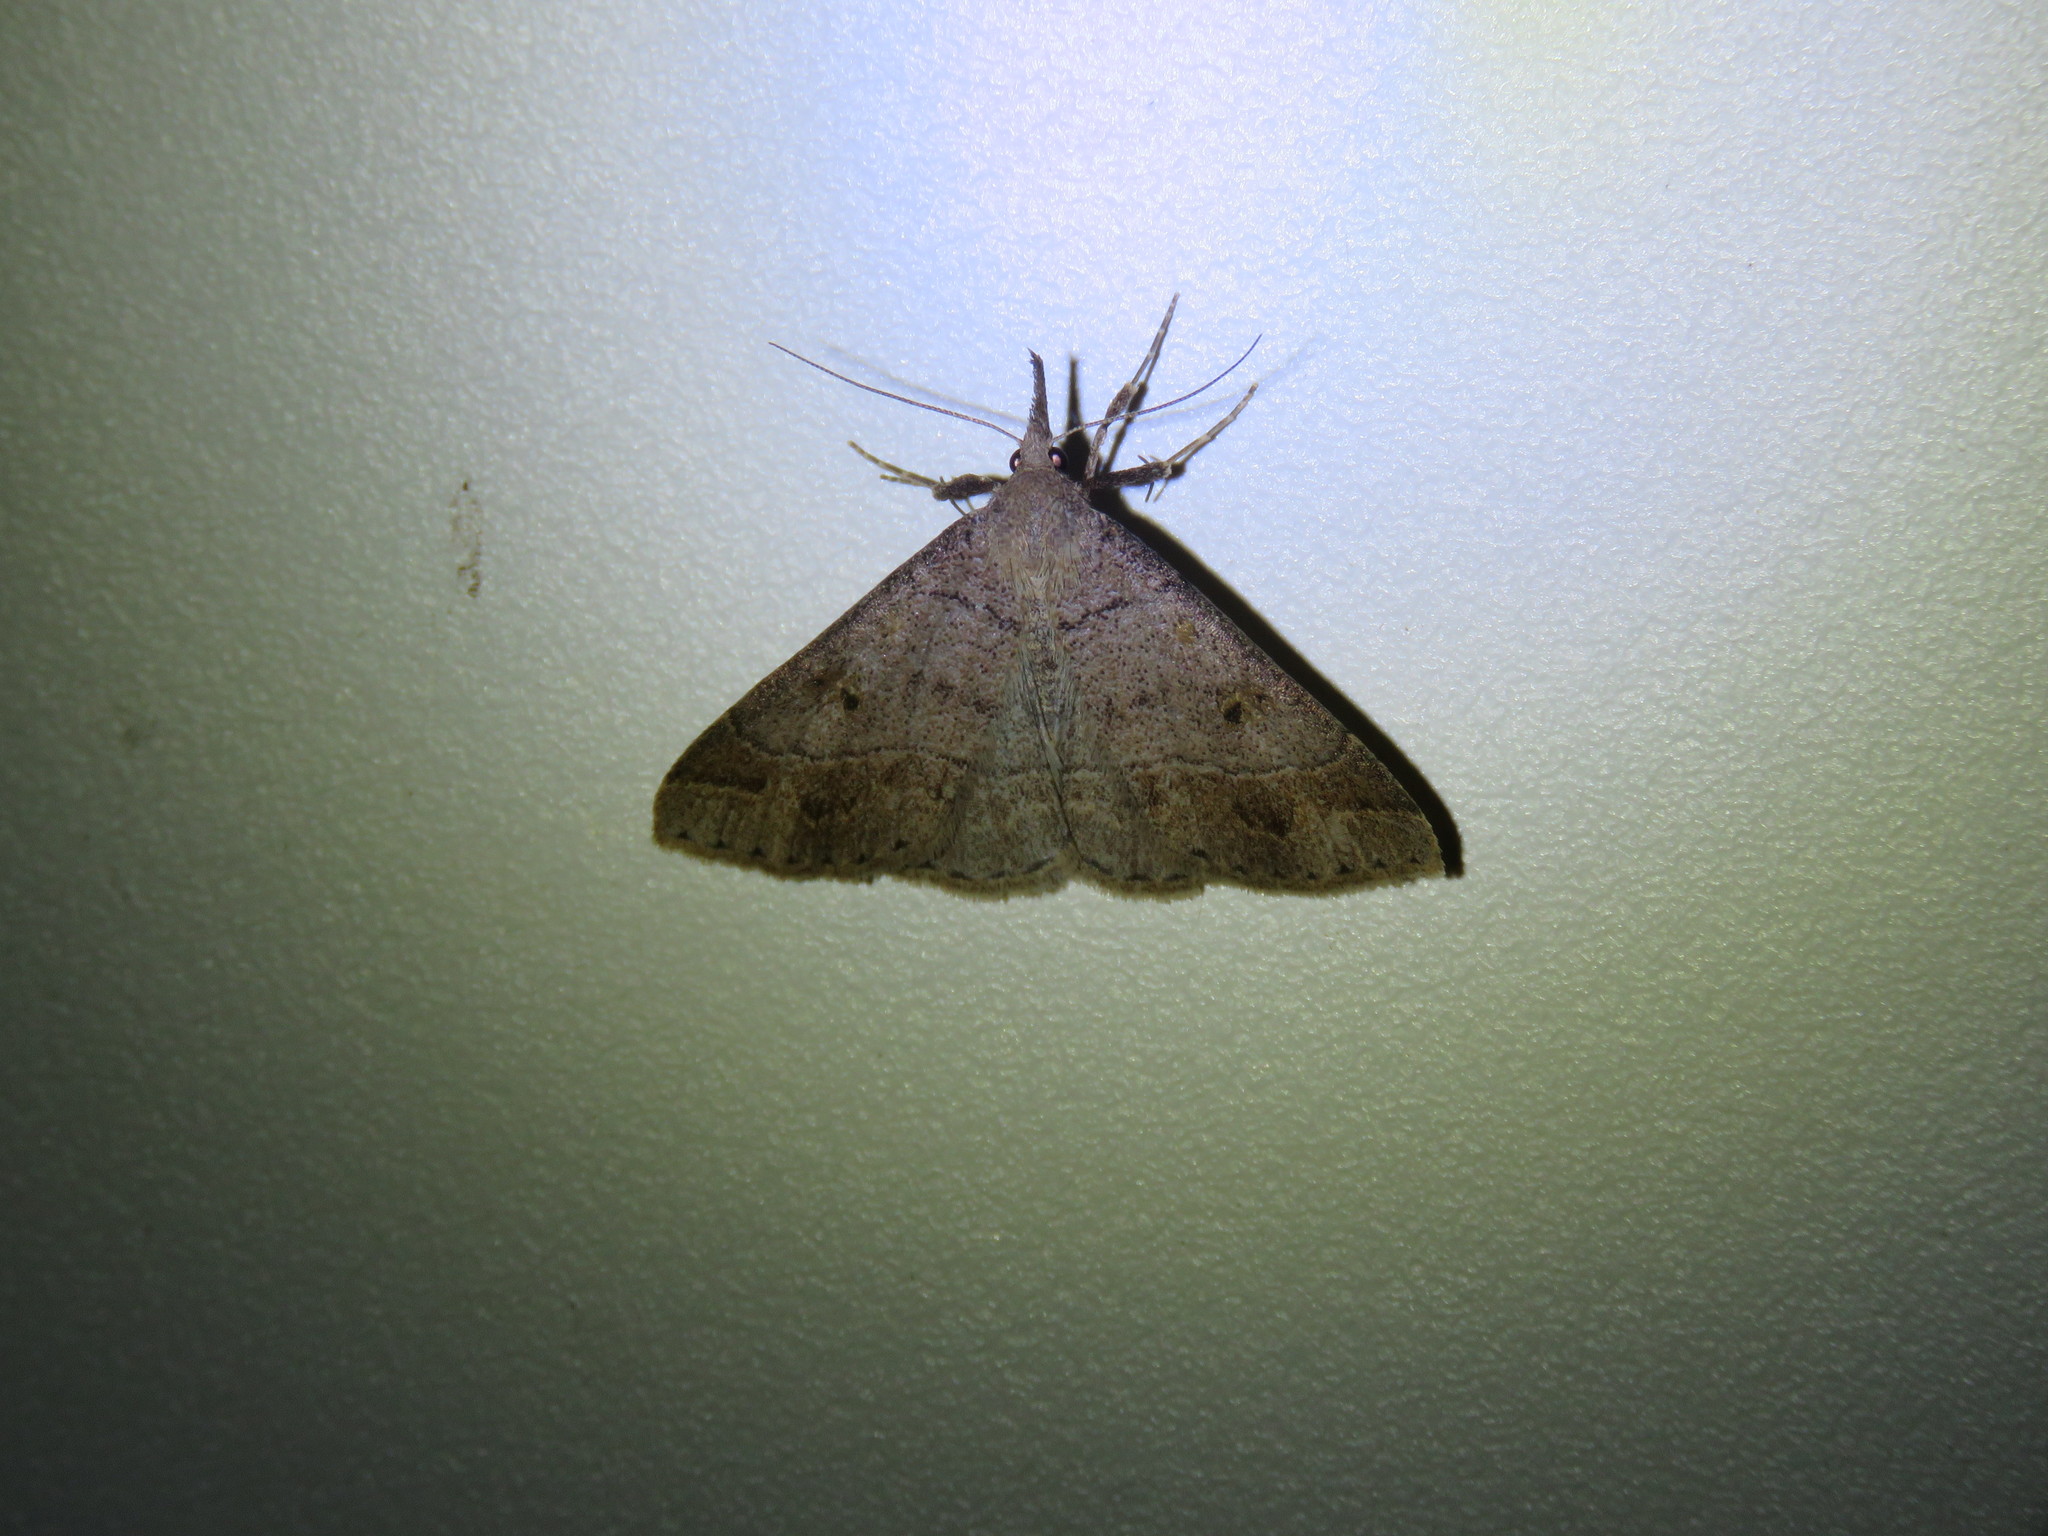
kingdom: Animalia
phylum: Arthropoda
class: Insecta
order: Lepidoptera
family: Erebidae
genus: Renia
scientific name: Renia flavipunctalis
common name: Yellow-spotted renia moth
